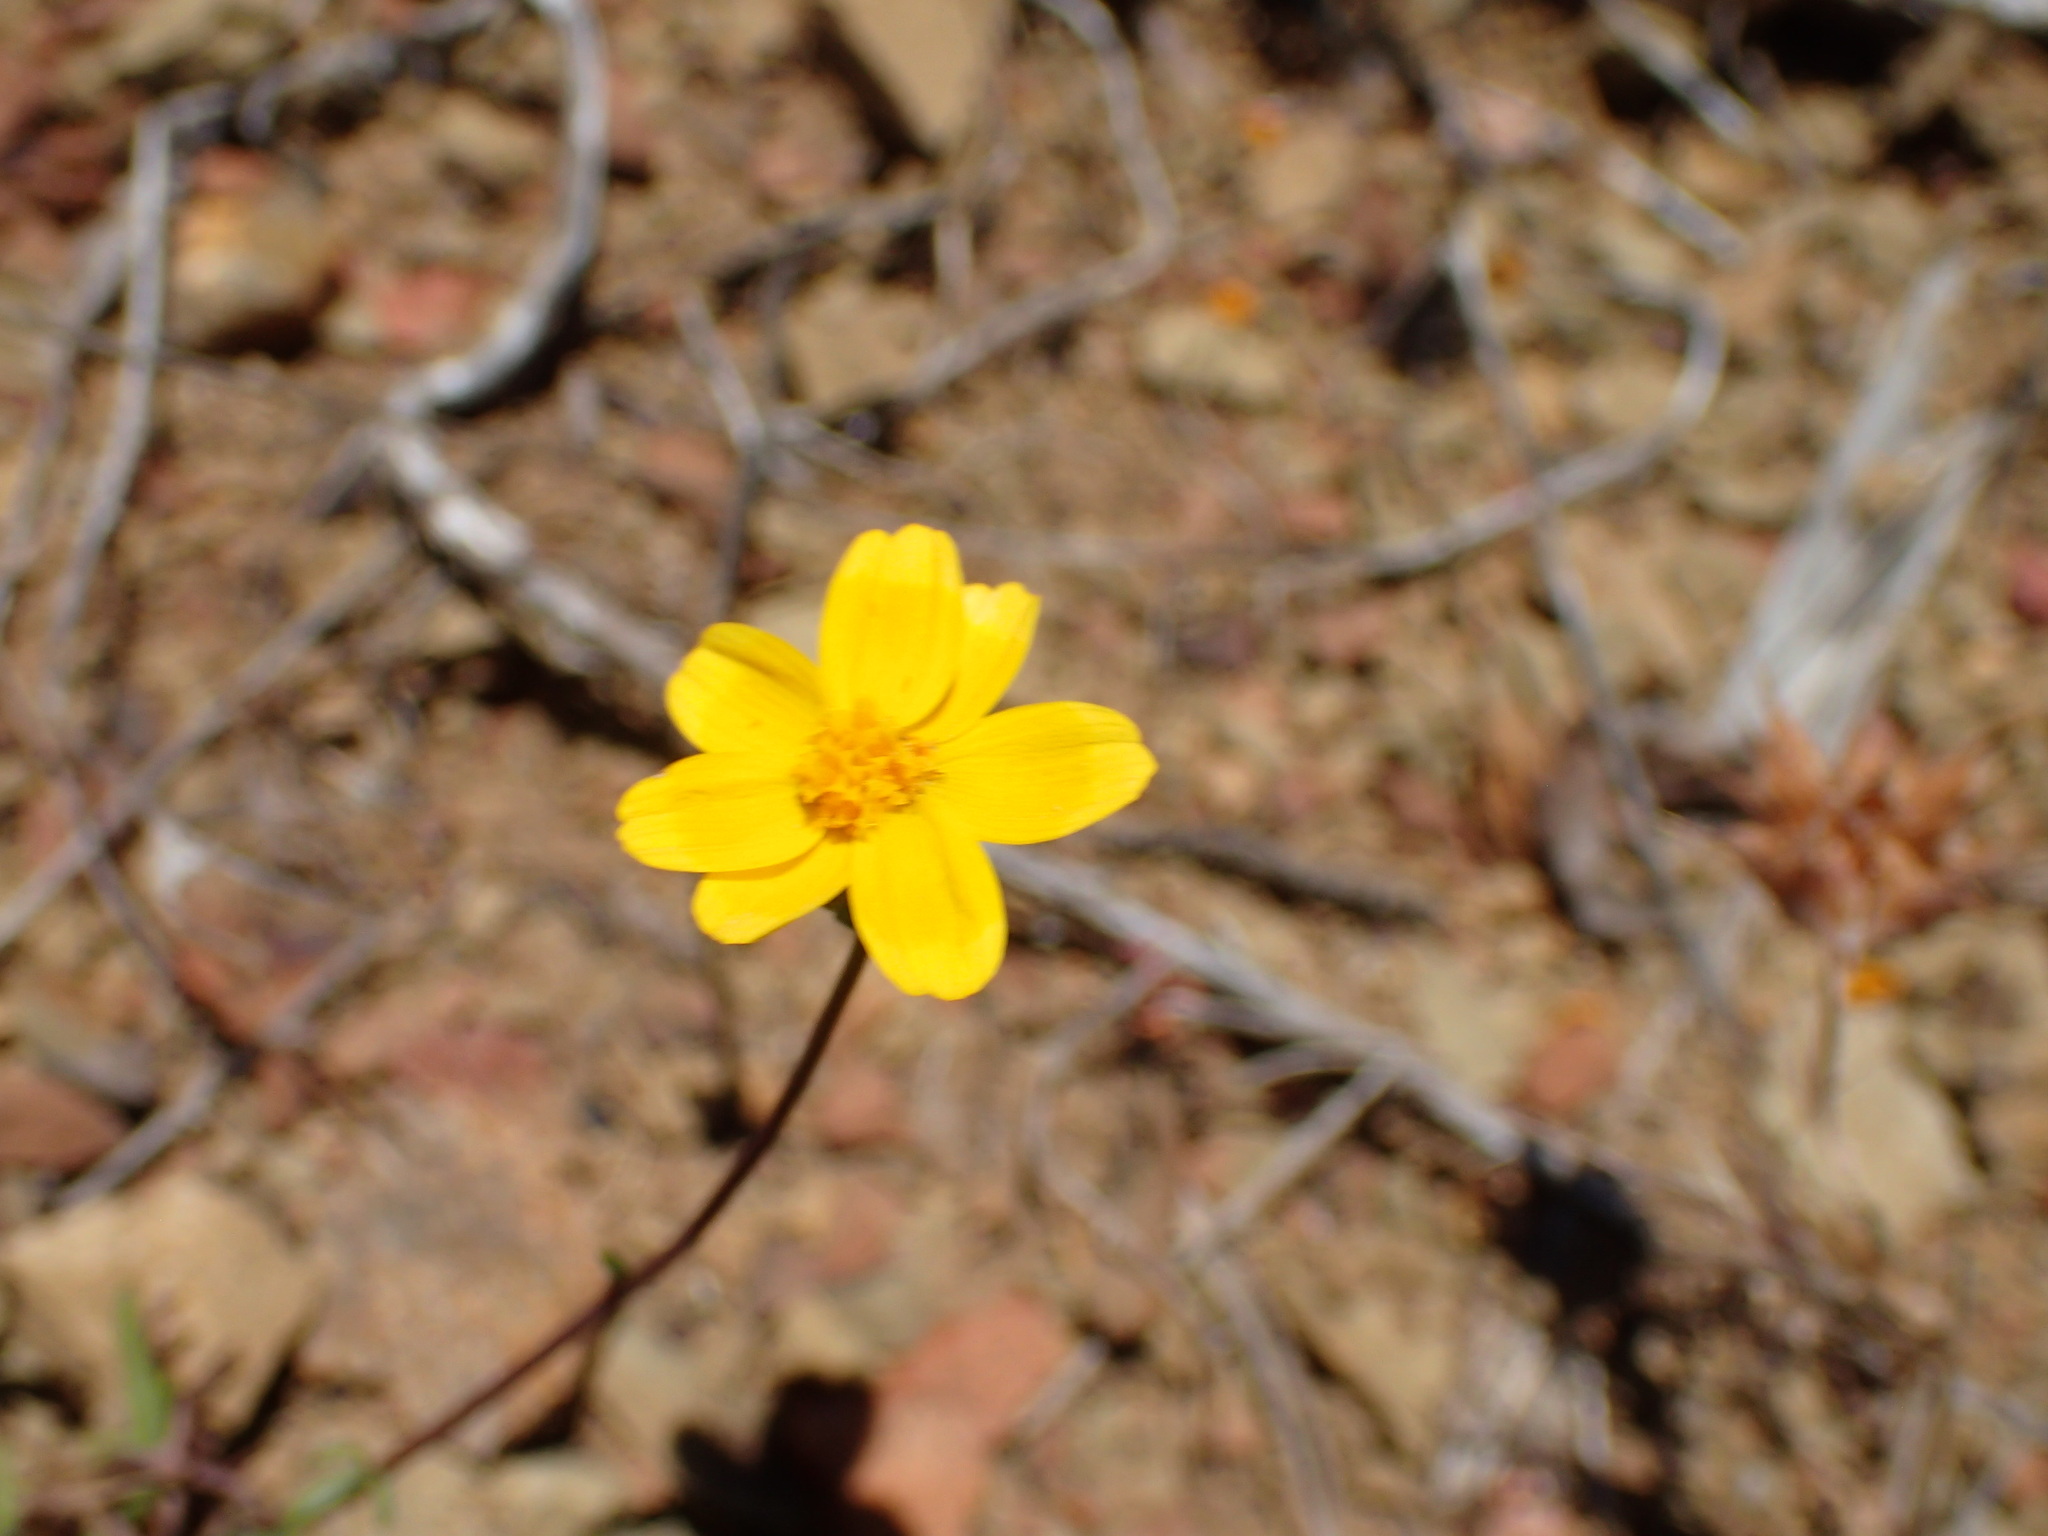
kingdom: Plantae
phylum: Tracheophyta
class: Magnoliopsida
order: Asterales
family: Asteraceae
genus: Coreopsis
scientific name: Coreopsis bigelovii
